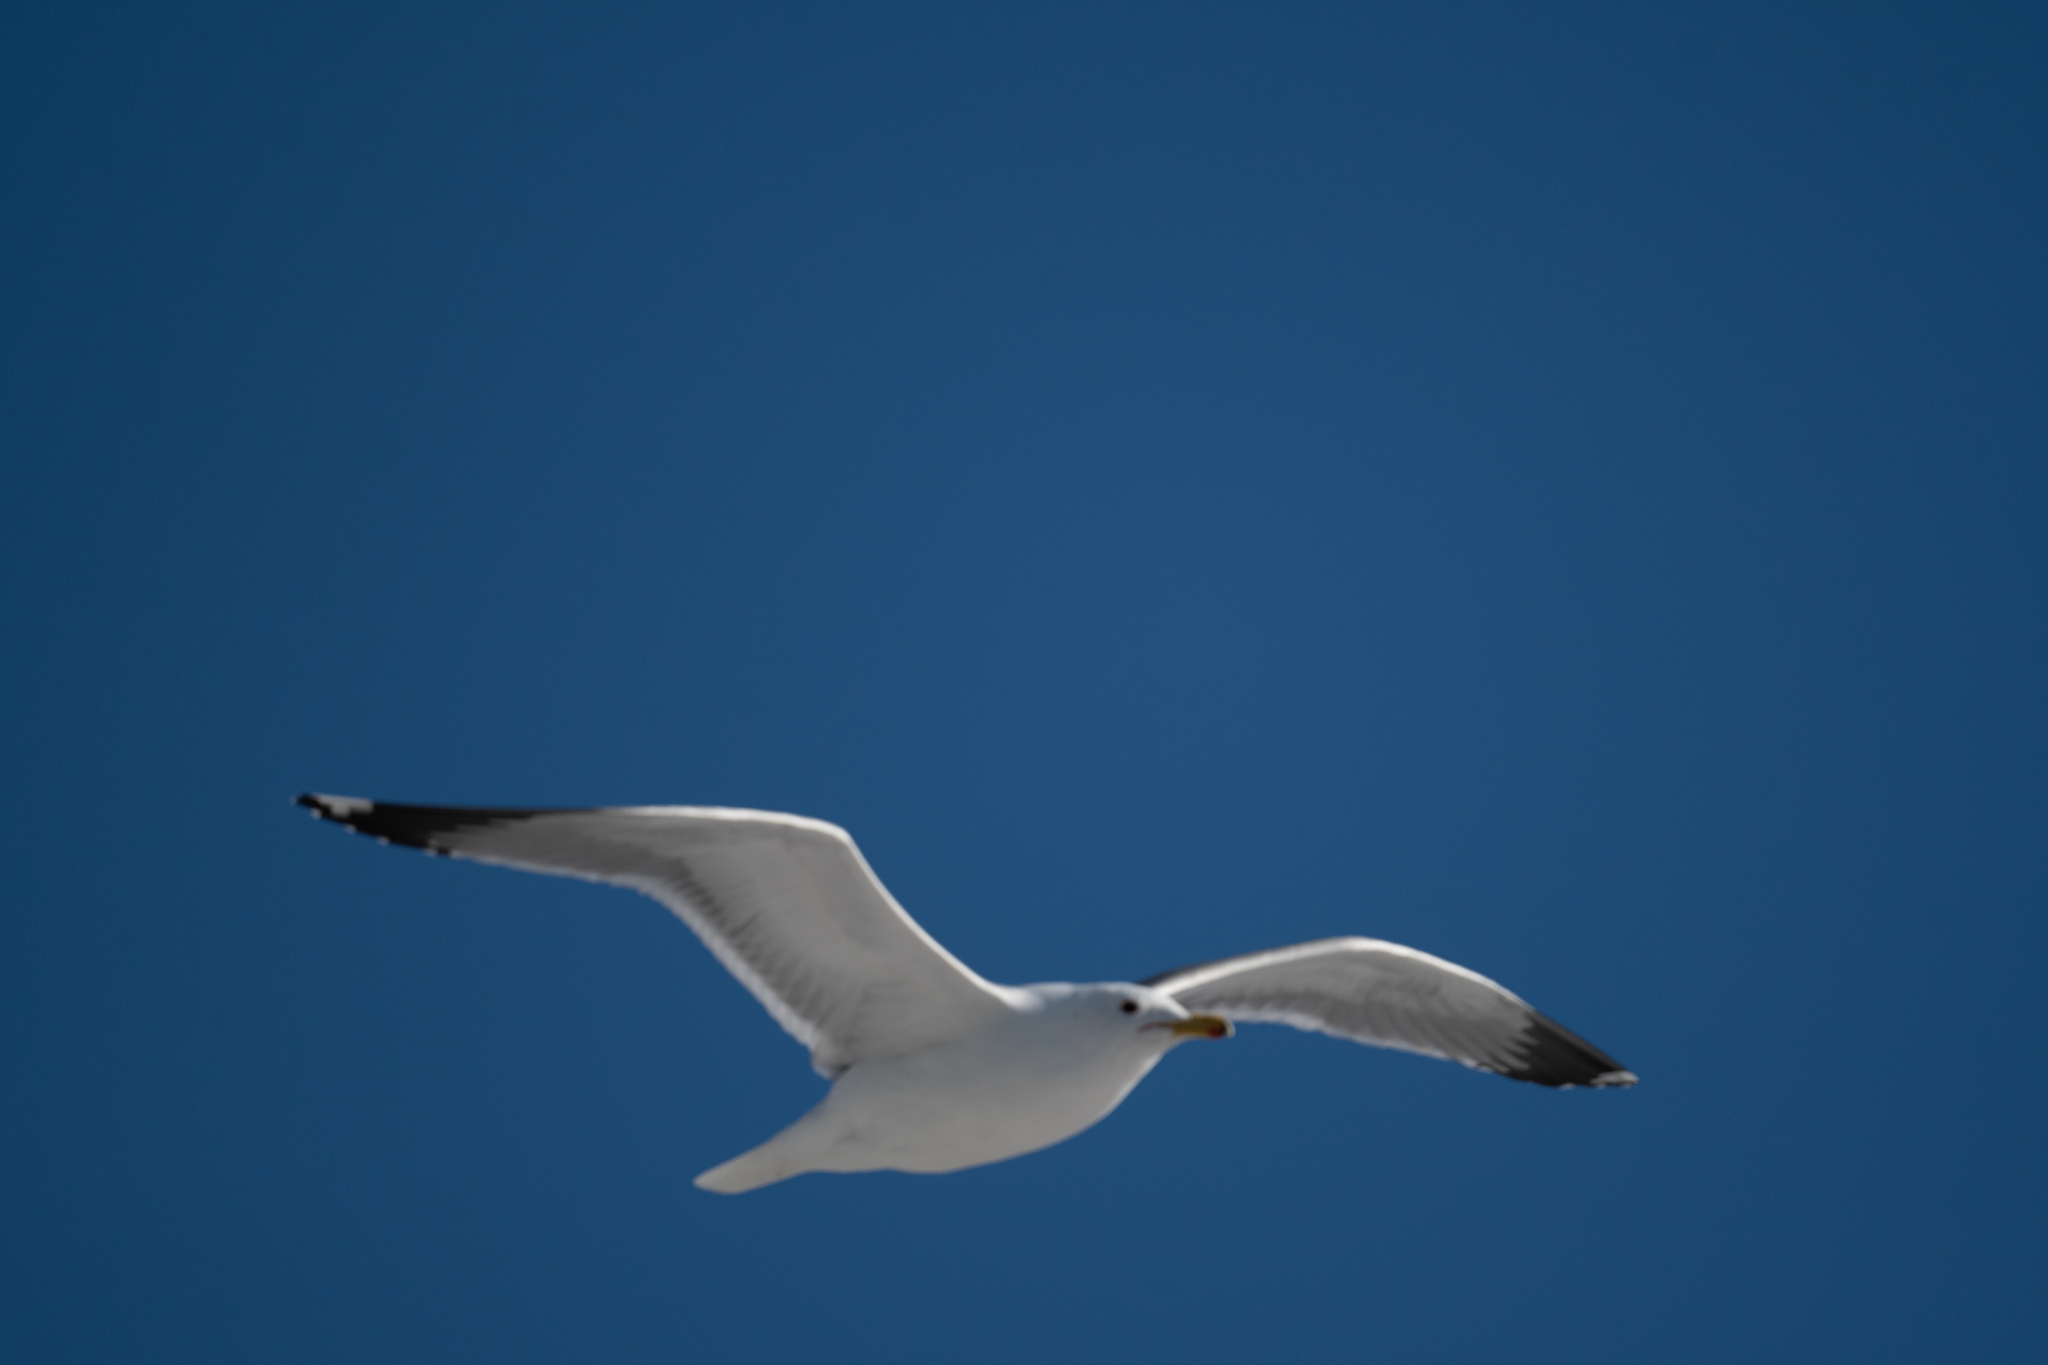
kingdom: Animalia
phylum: Chordata
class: Aves
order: Charadriiformes
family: Laridae
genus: Larus
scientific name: Larus californicus
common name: California gull
